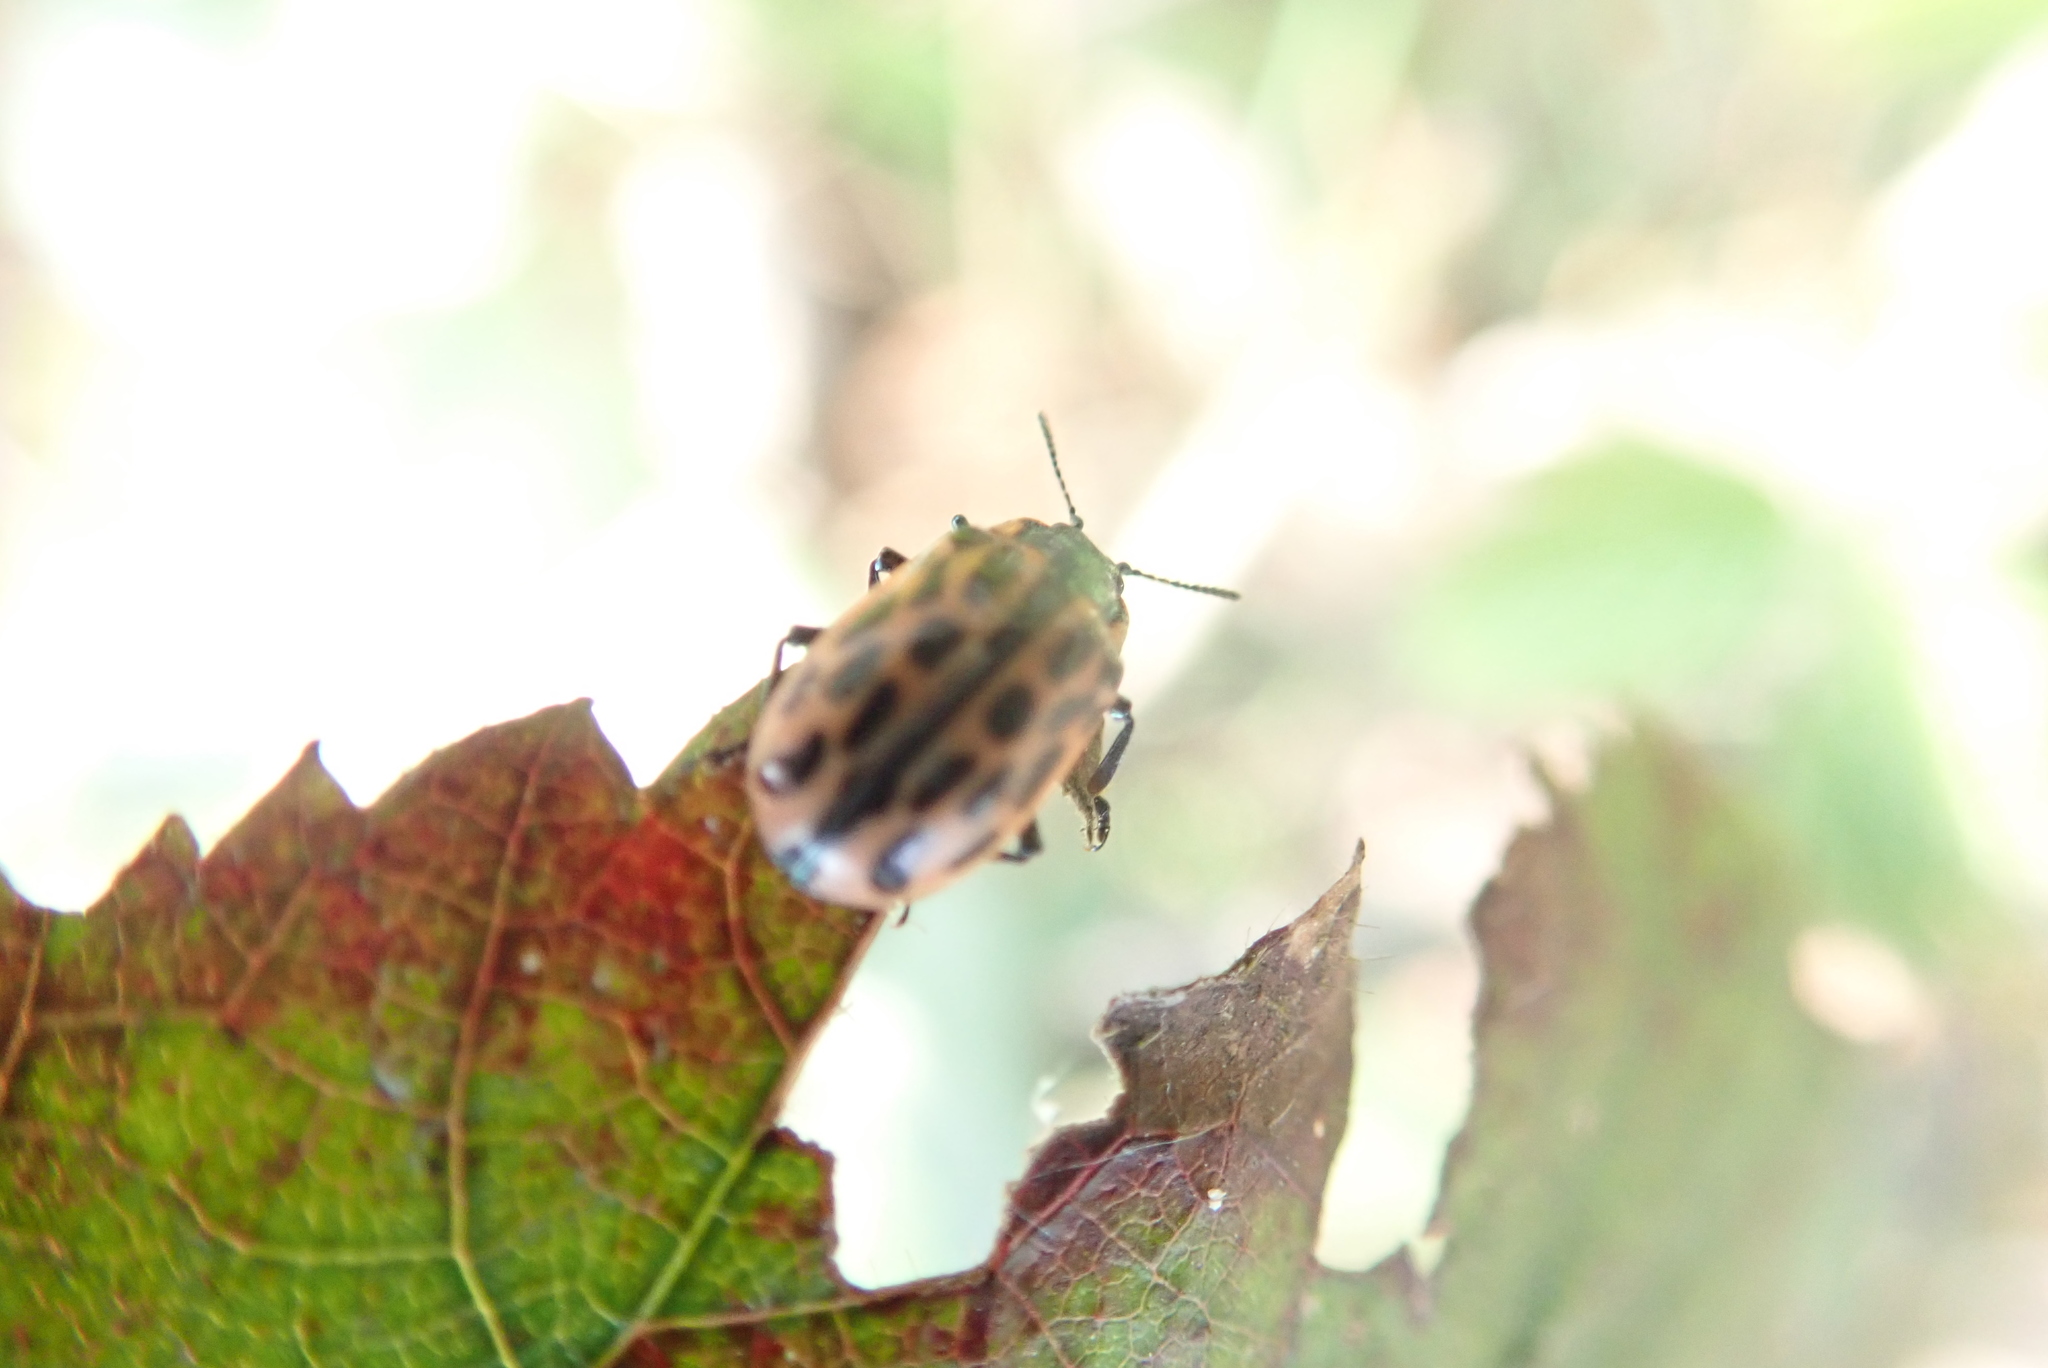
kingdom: Animalia
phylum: Arthropoda
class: Insecta
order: Coleoptera
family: Chrysomelidae
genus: Chrysomela
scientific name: Chrysomela vigintipunctata
